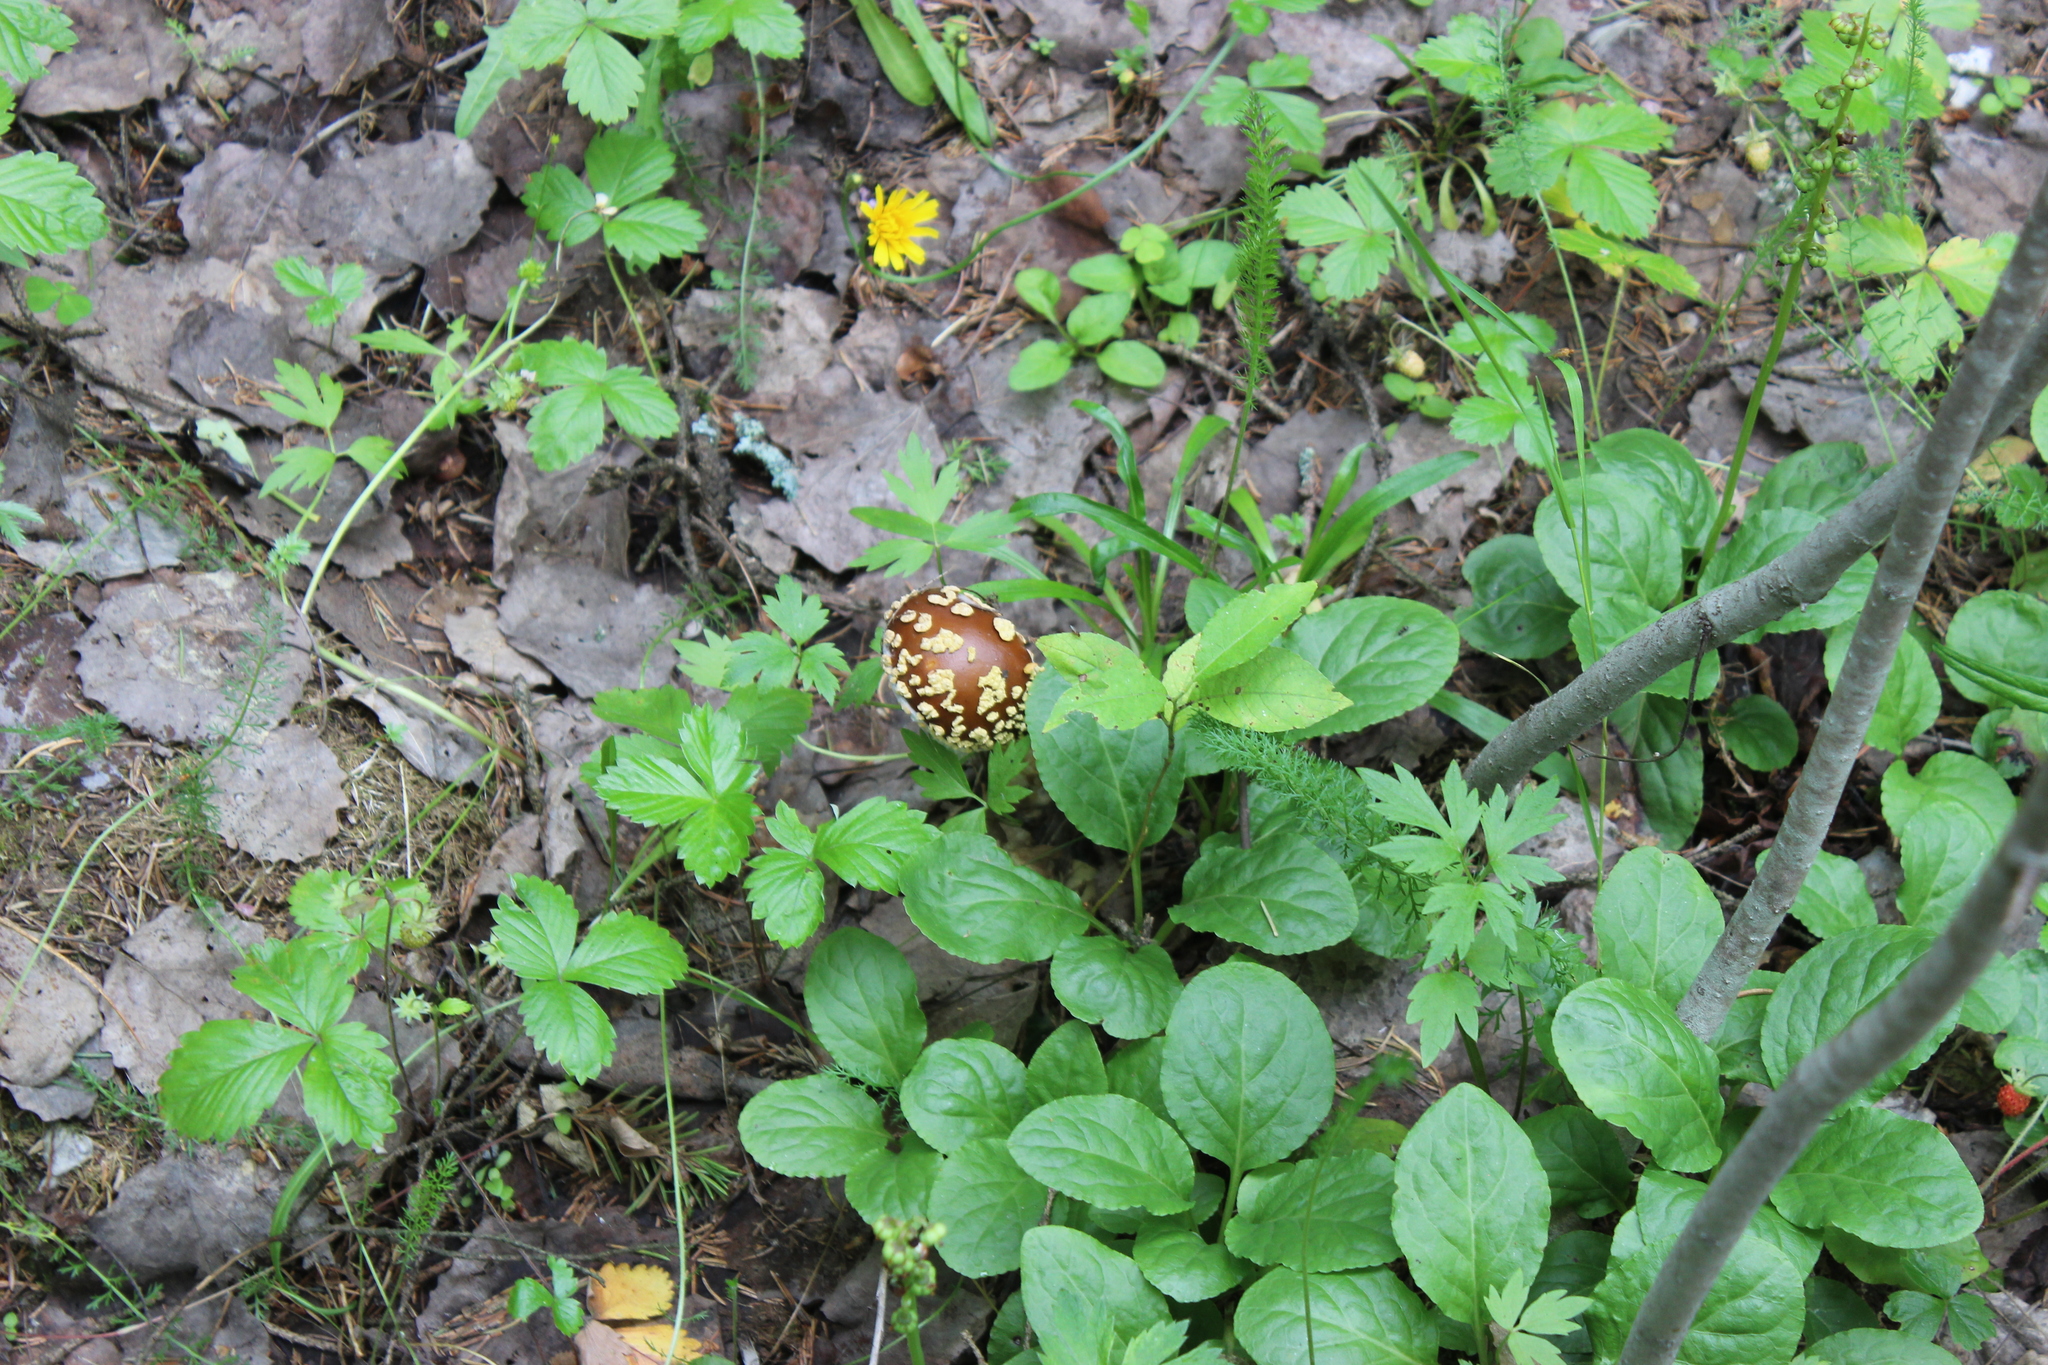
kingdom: Fungi
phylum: Basidiomycota
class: Agaricomycetes
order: Agaricales
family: Amanitaceae
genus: Amanita
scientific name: Amanita regalis
